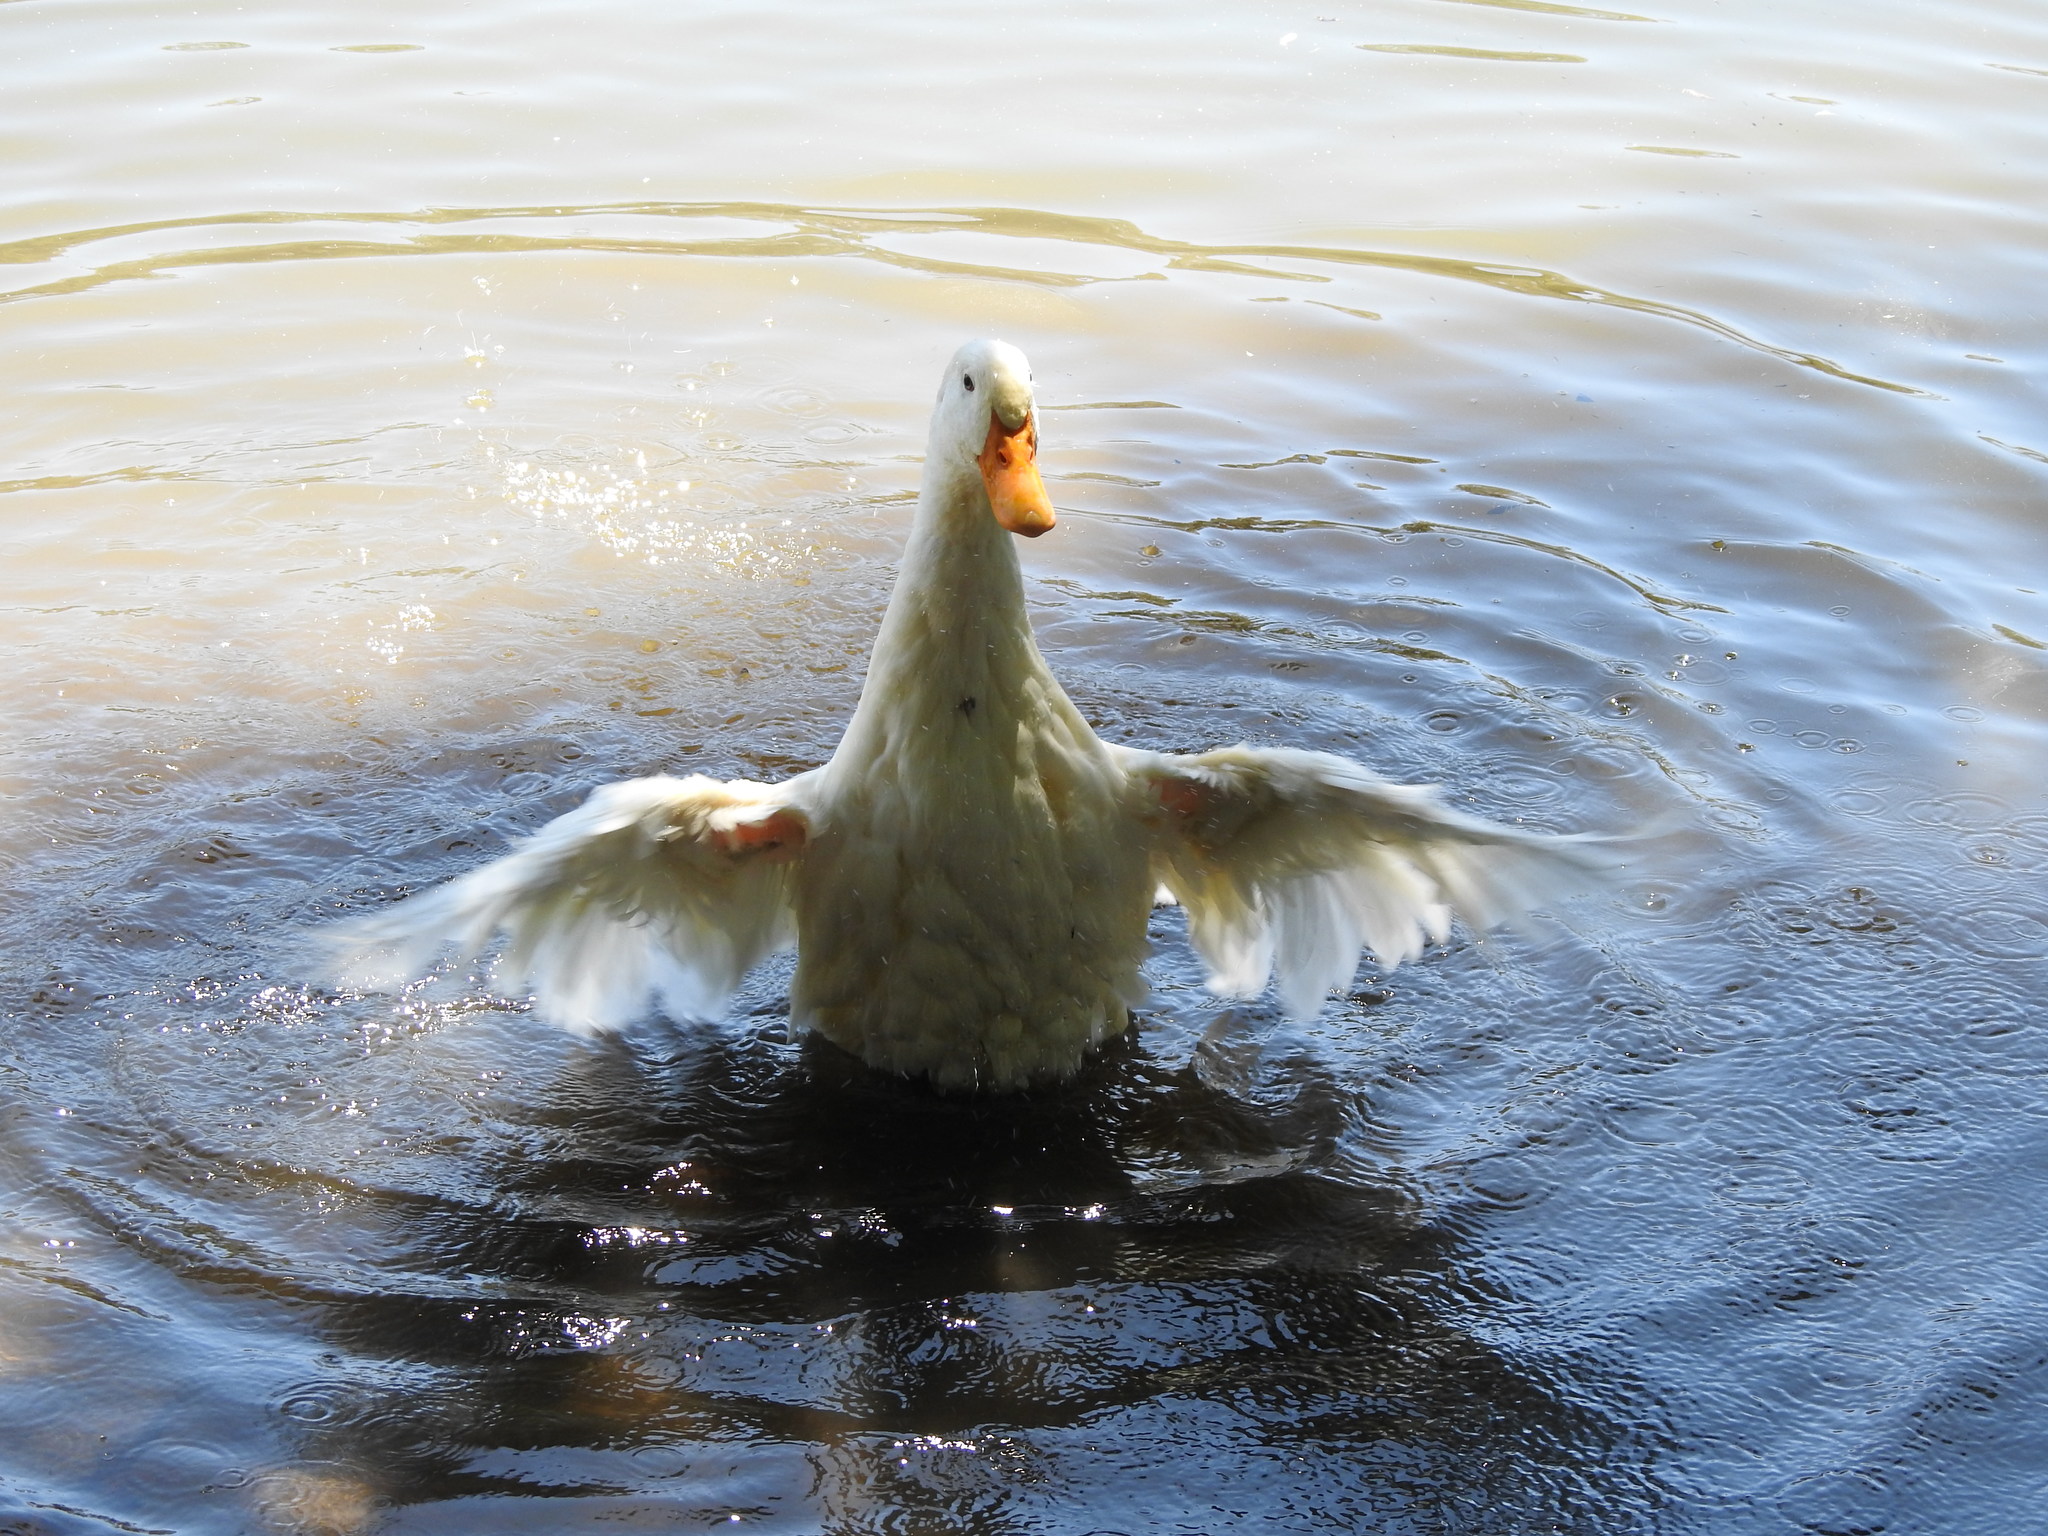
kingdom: Animalia
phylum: Chordata
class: Aves
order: Anseriformes
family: Anatidae
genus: Anas
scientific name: Anas platyrhynchos
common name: Mallard
